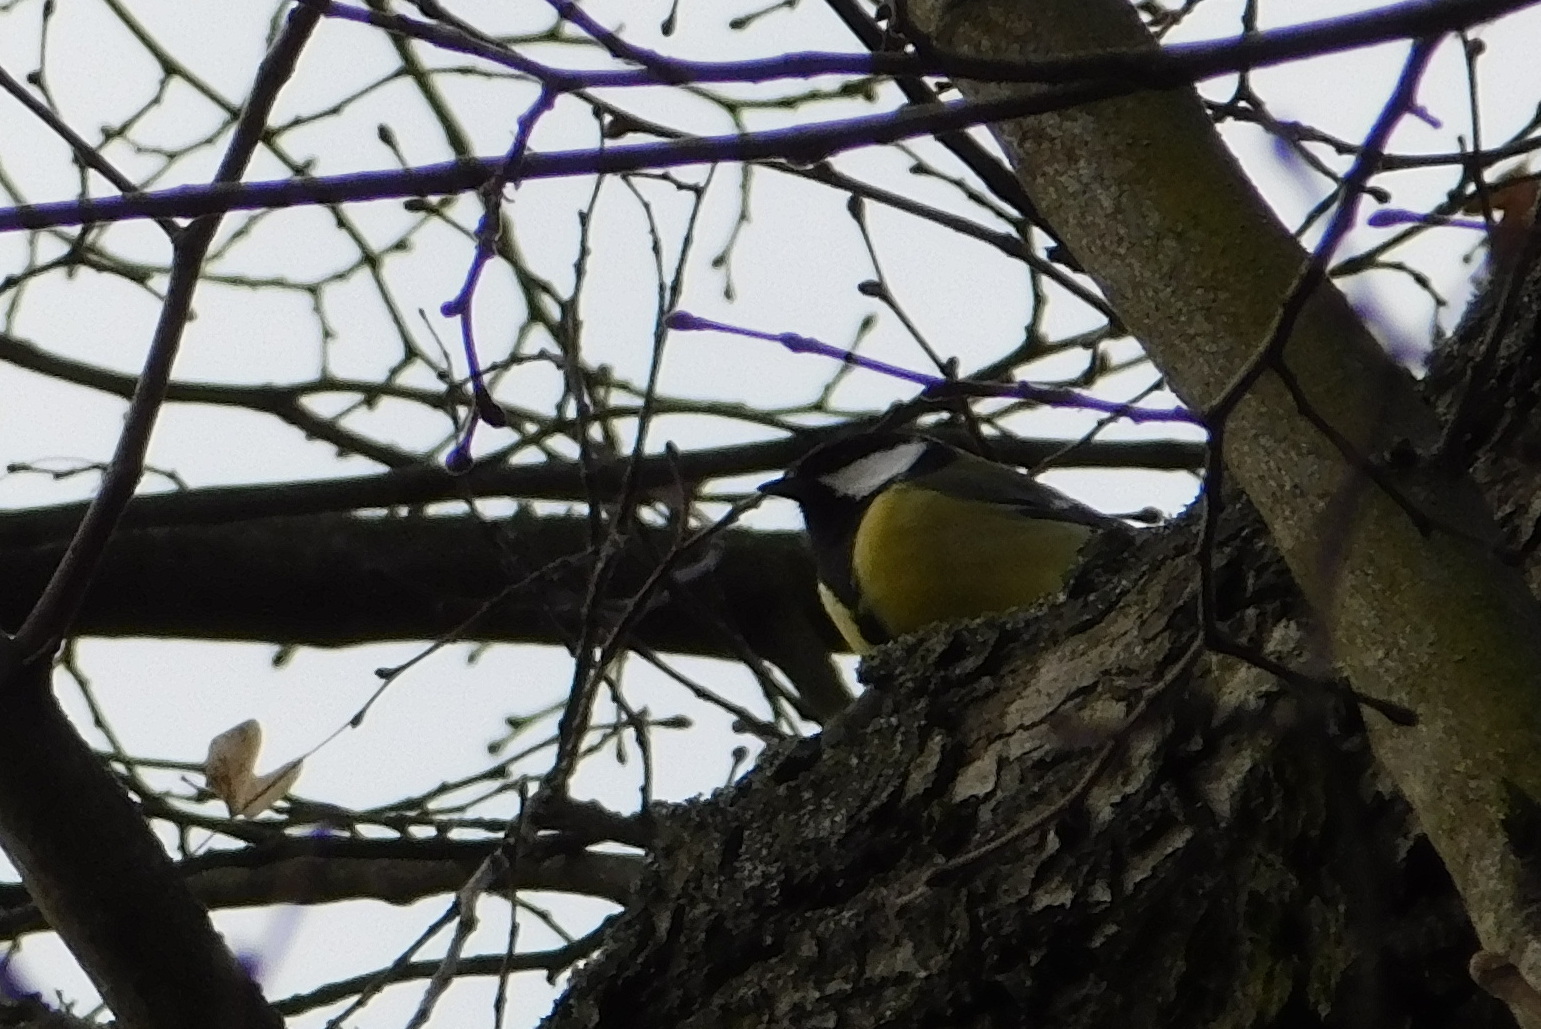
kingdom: Animalia
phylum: Chordata
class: Aves
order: Passeriformes
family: Paridae
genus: Parus
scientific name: Parus major
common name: Great tit
